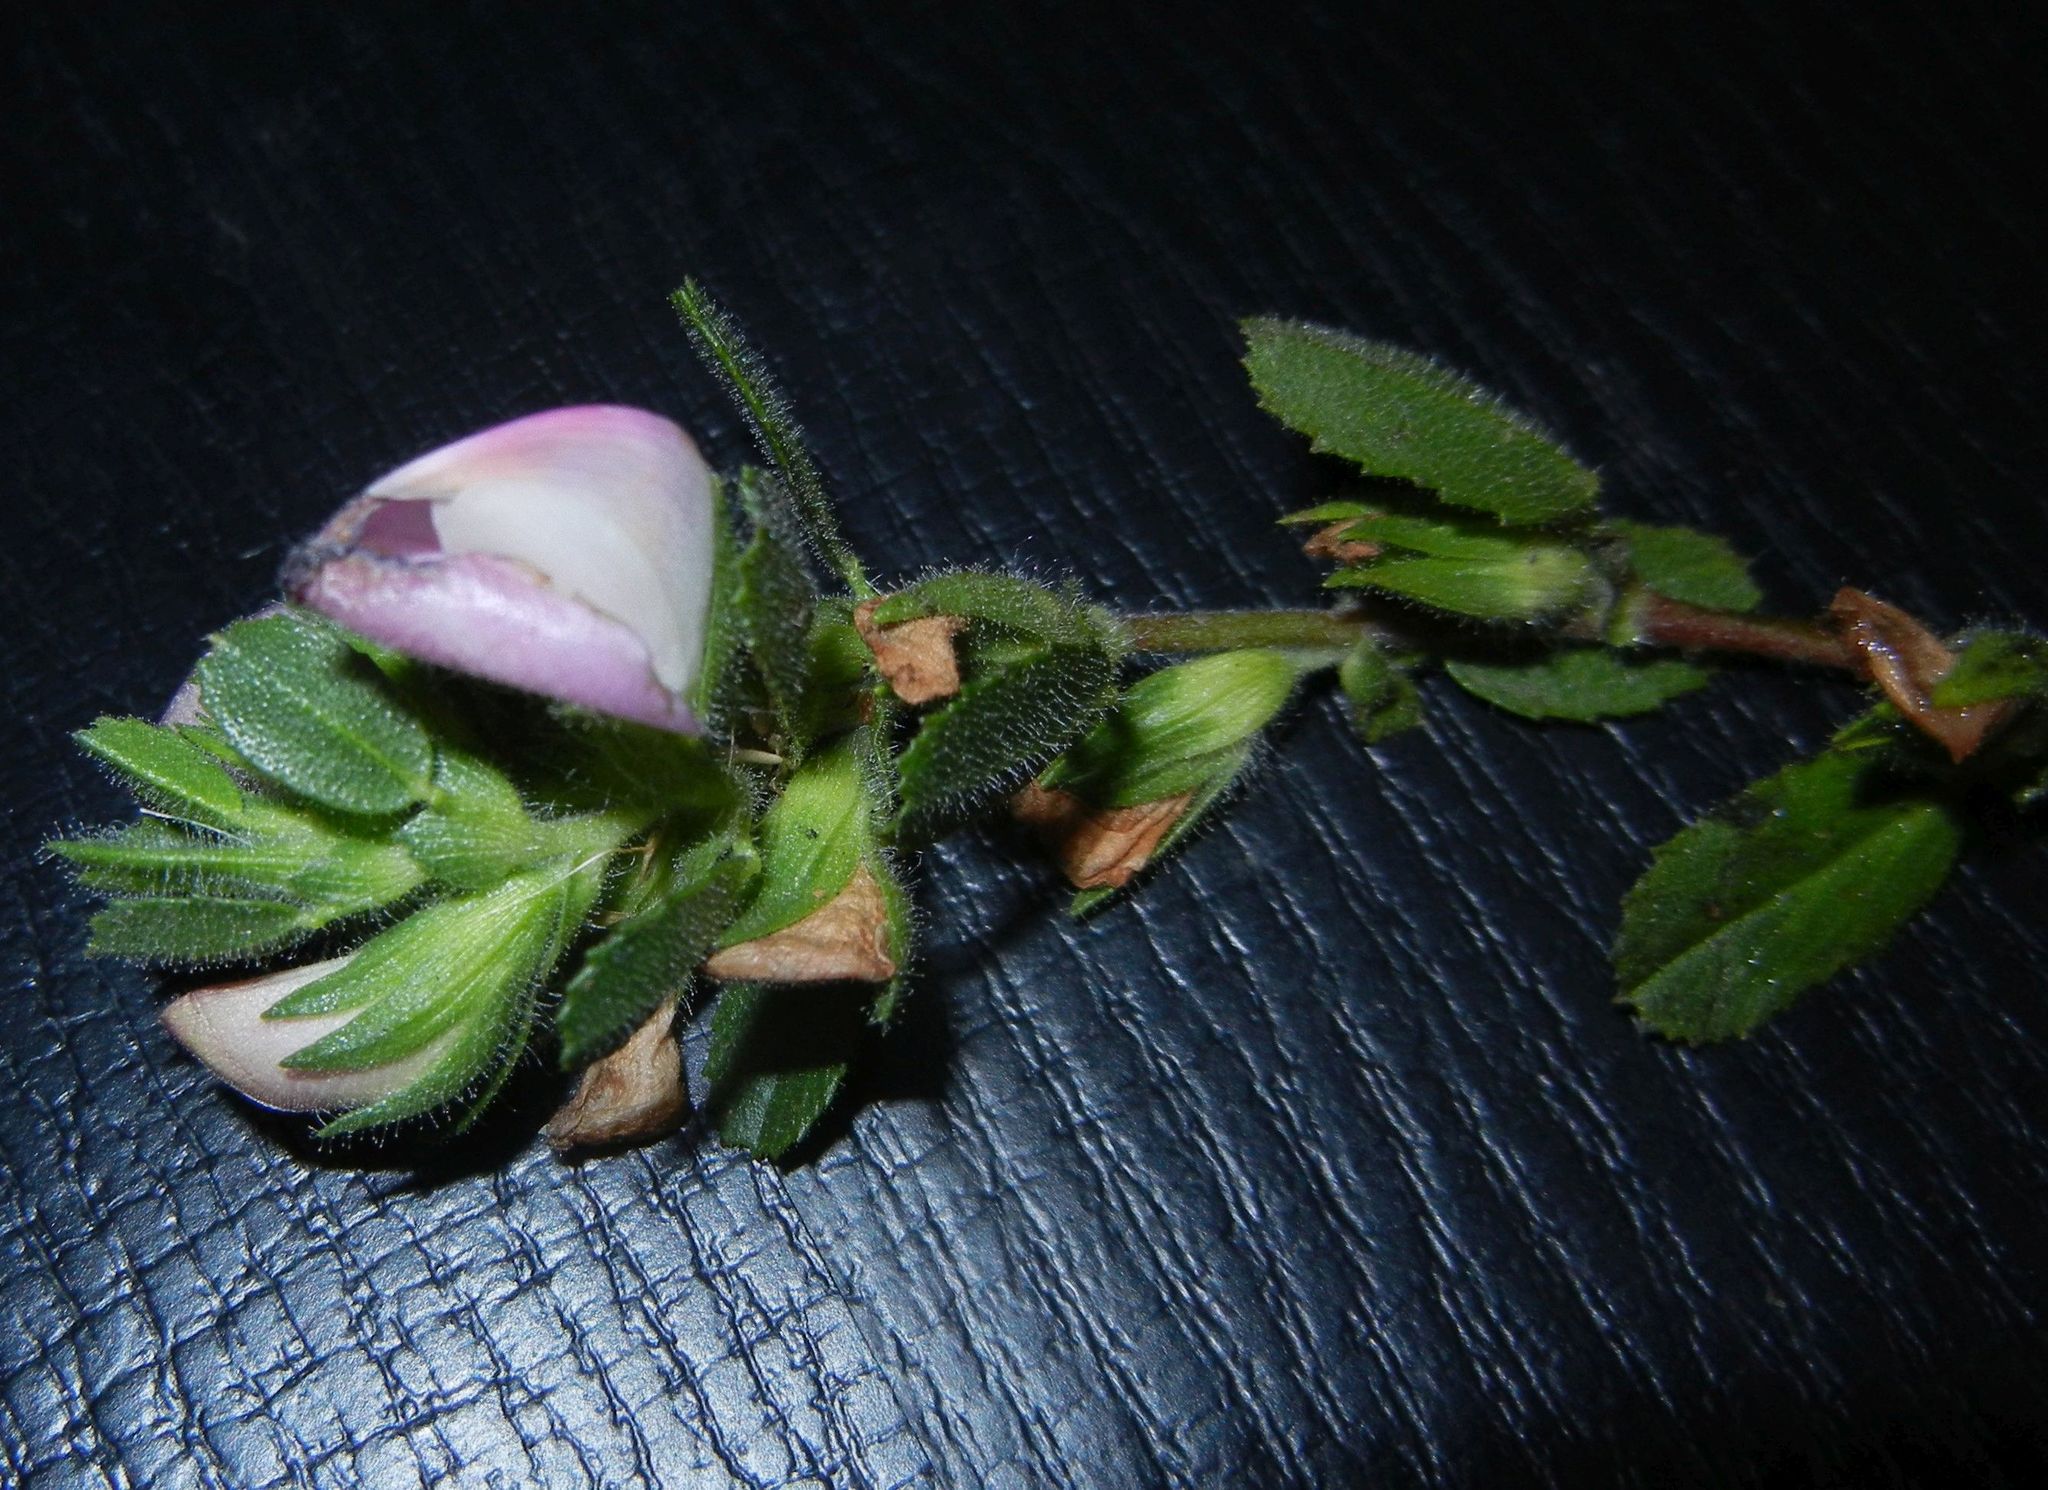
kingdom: Plantae
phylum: Tracheophyta
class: Magnoliopsida
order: Fabales
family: Fabaceae
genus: Ononis
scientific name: Ononis spinosa
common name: Spiny restharrow
